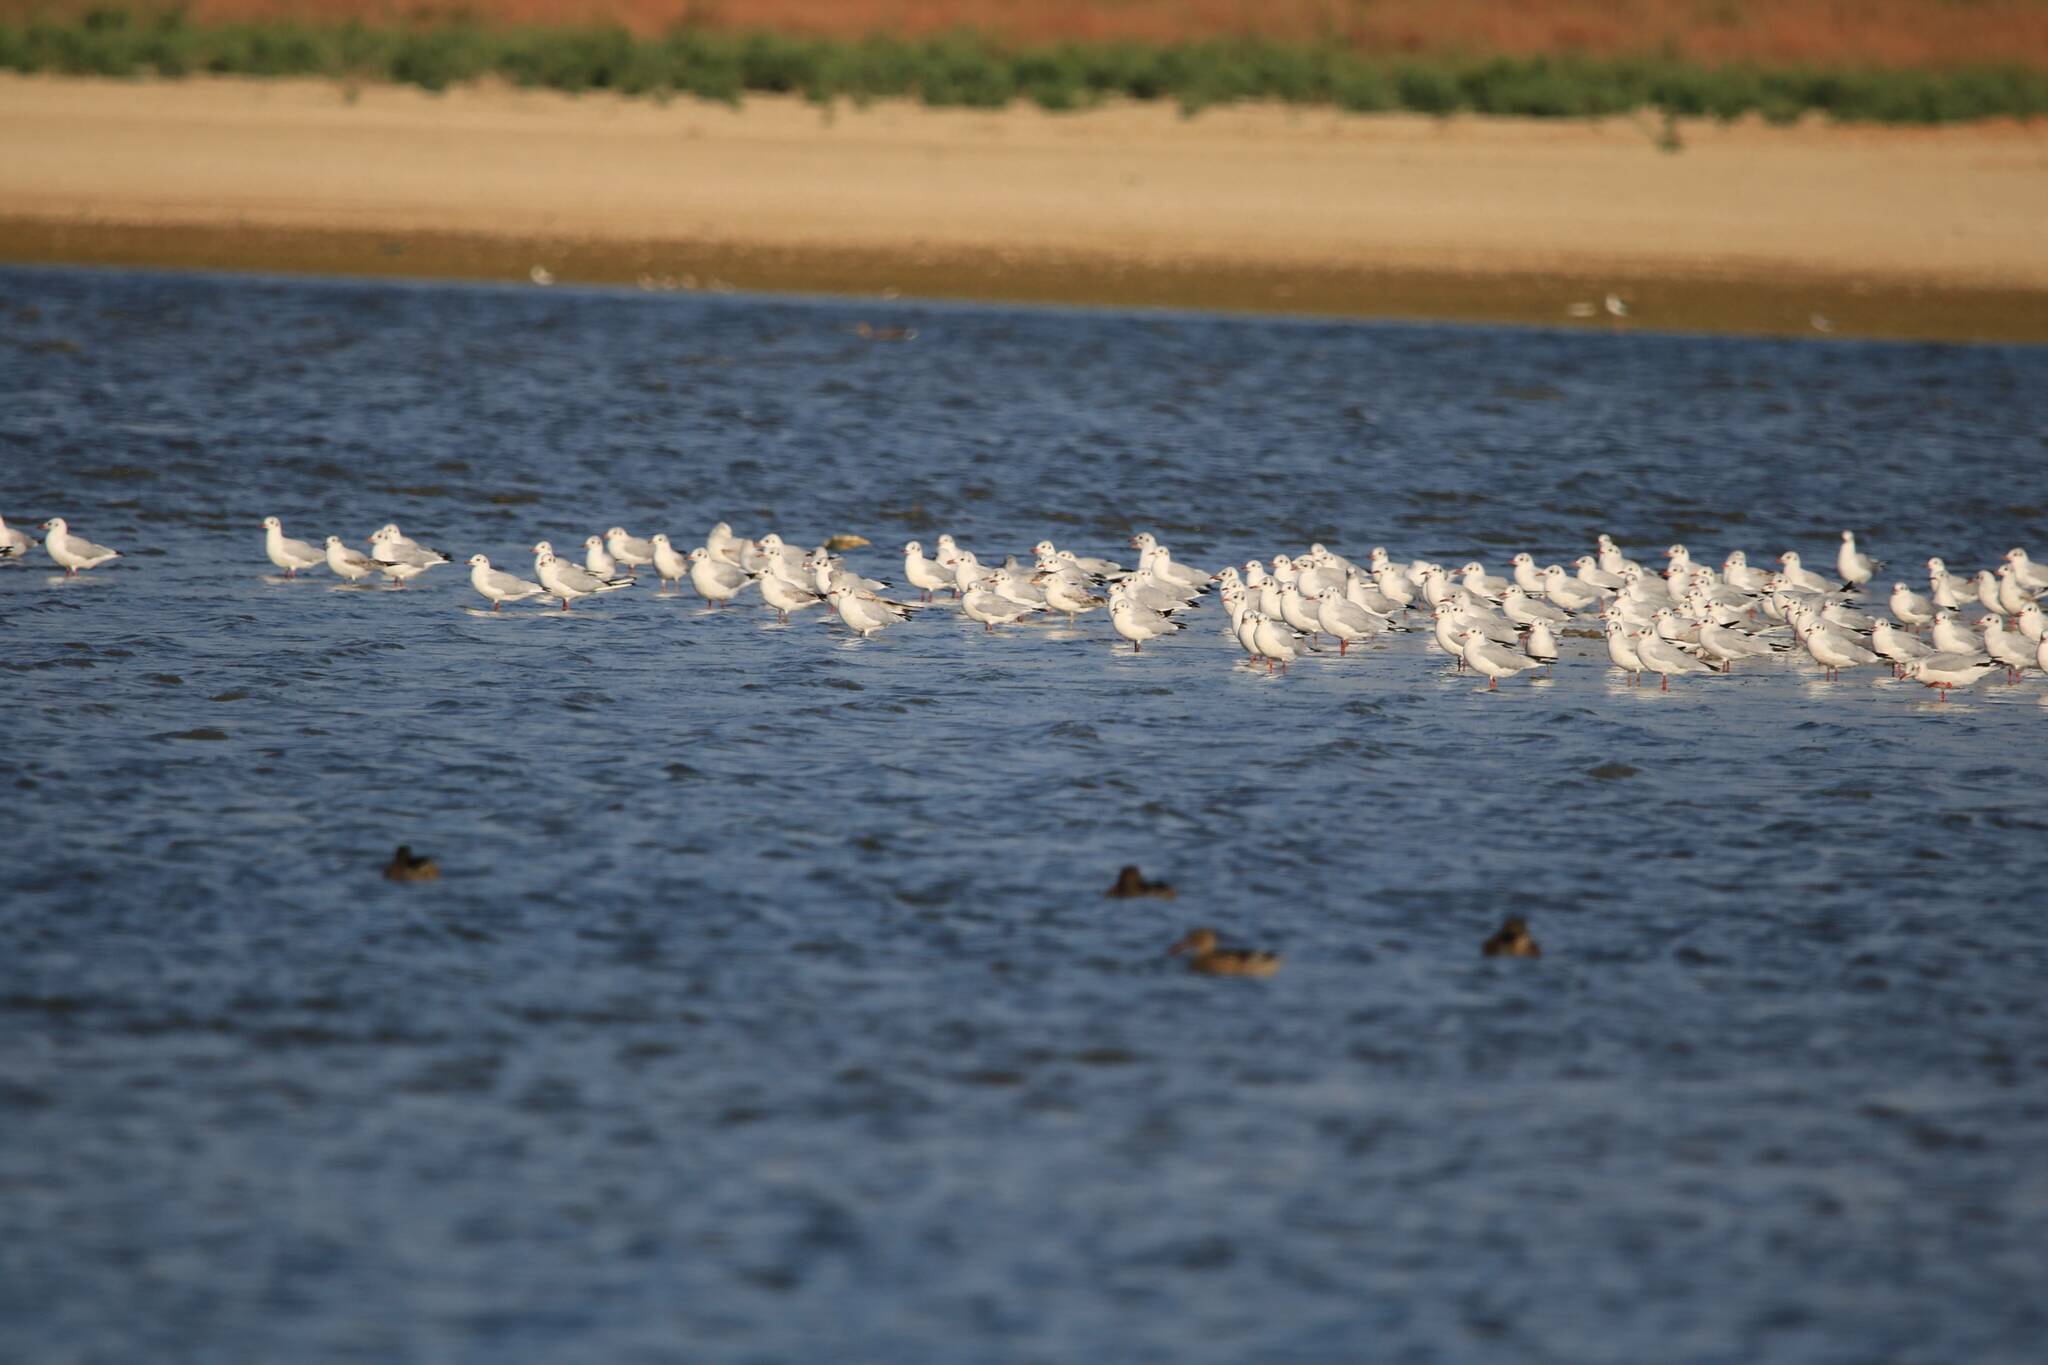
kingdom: Animalia
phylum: Chordata
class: Aves
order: Charadriiformes
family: Laridae
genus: Chroicocephalus
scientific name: Chroicocephalus ridibundus
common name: Black-headed gull
